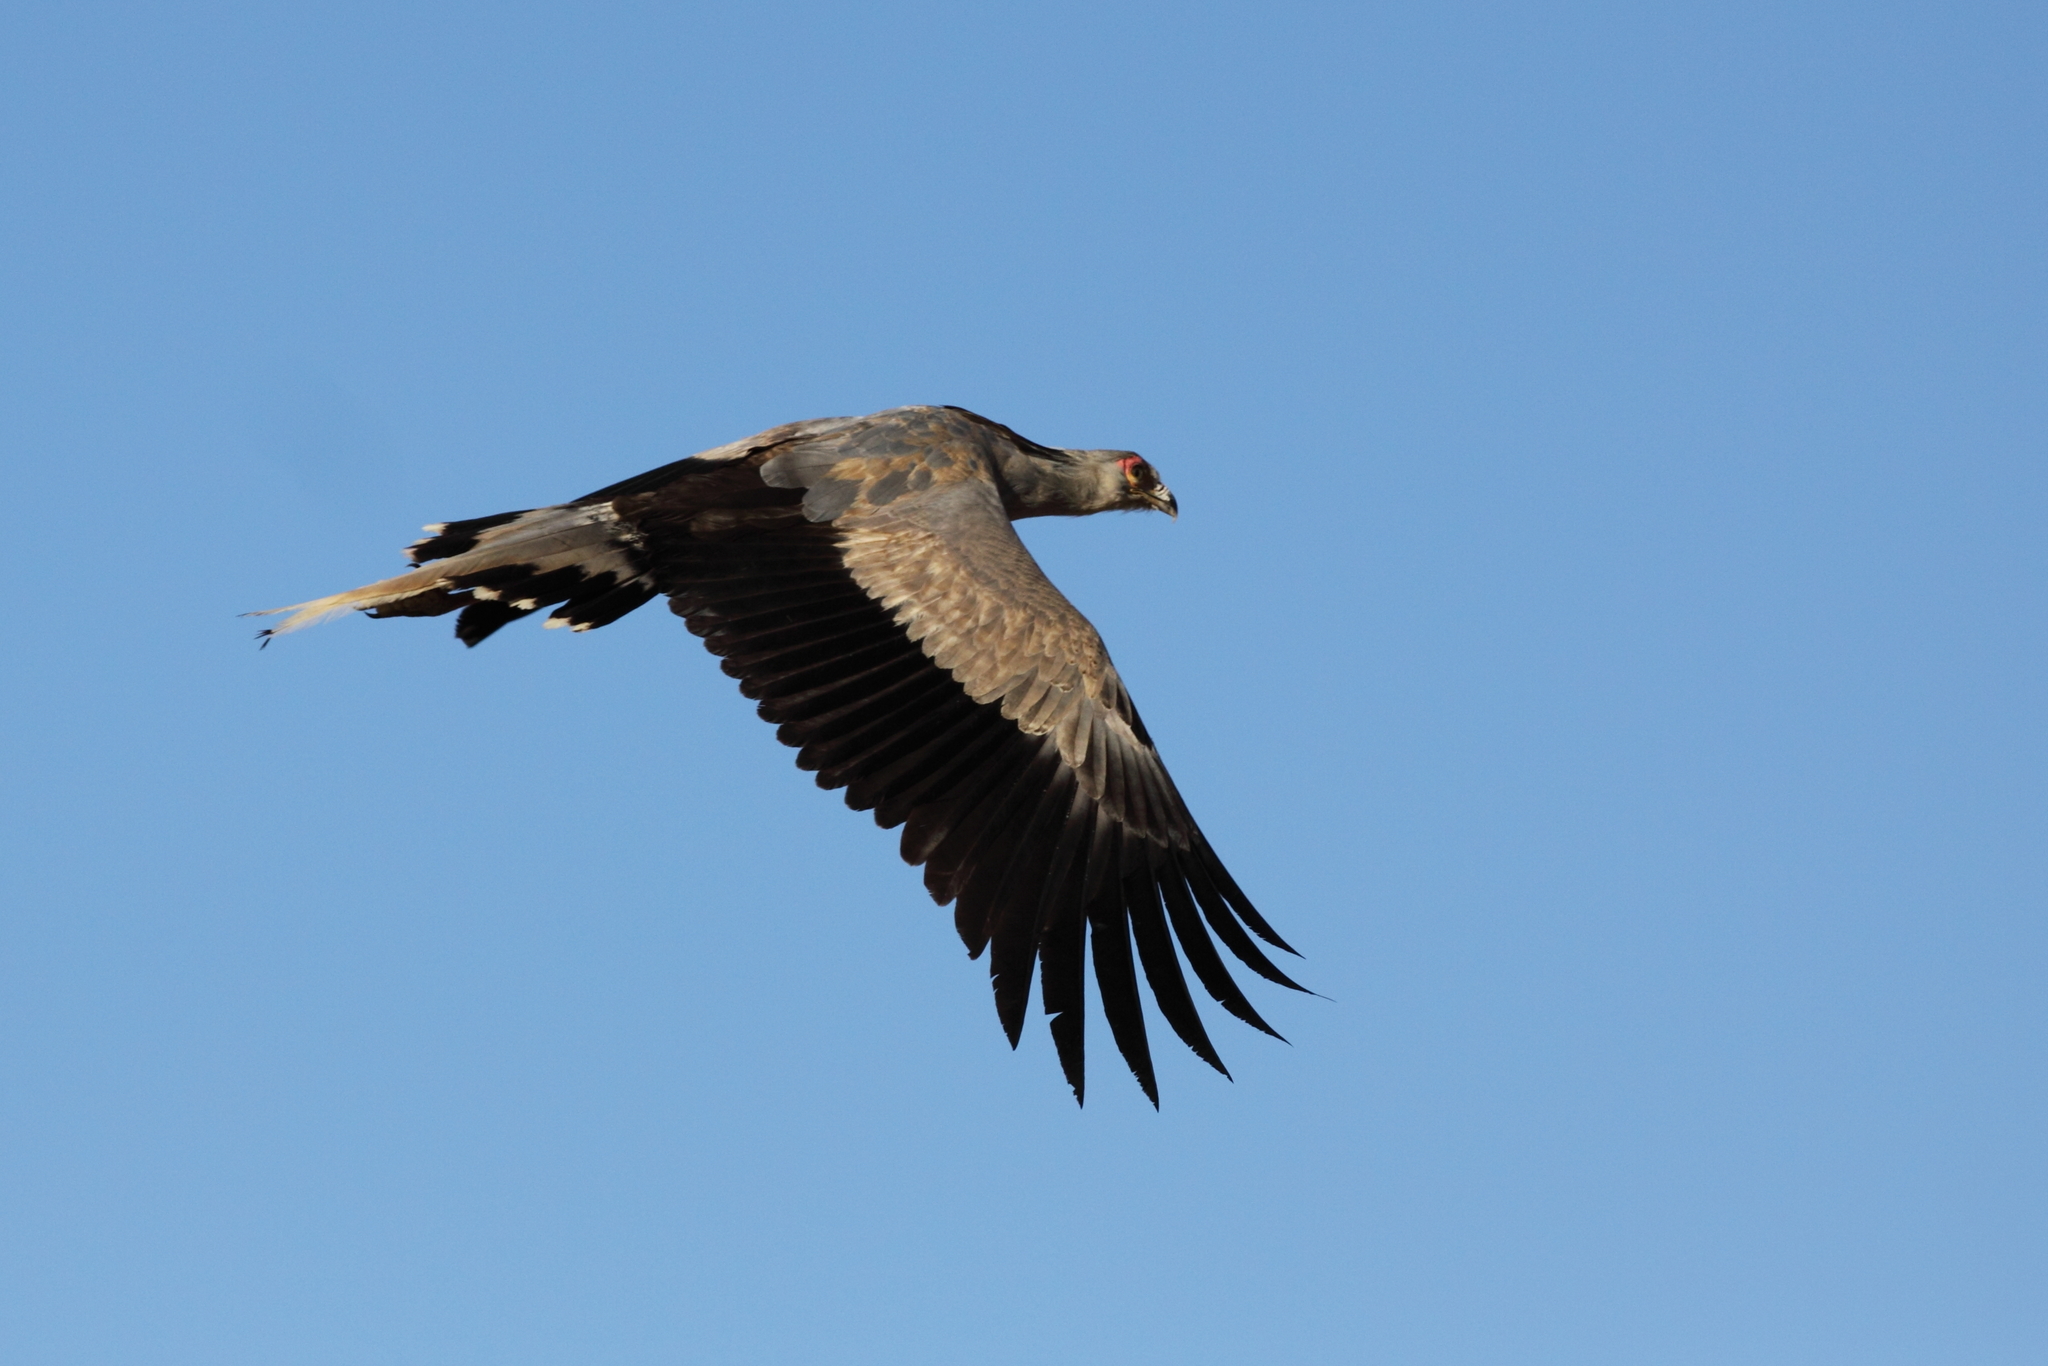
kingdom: Animalia
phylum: Chordata
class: Aves
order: Accipitriformes
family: Sagittariidae
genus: Sagittarius
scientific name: Sagittarius serpentarius
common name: Secretarybird
